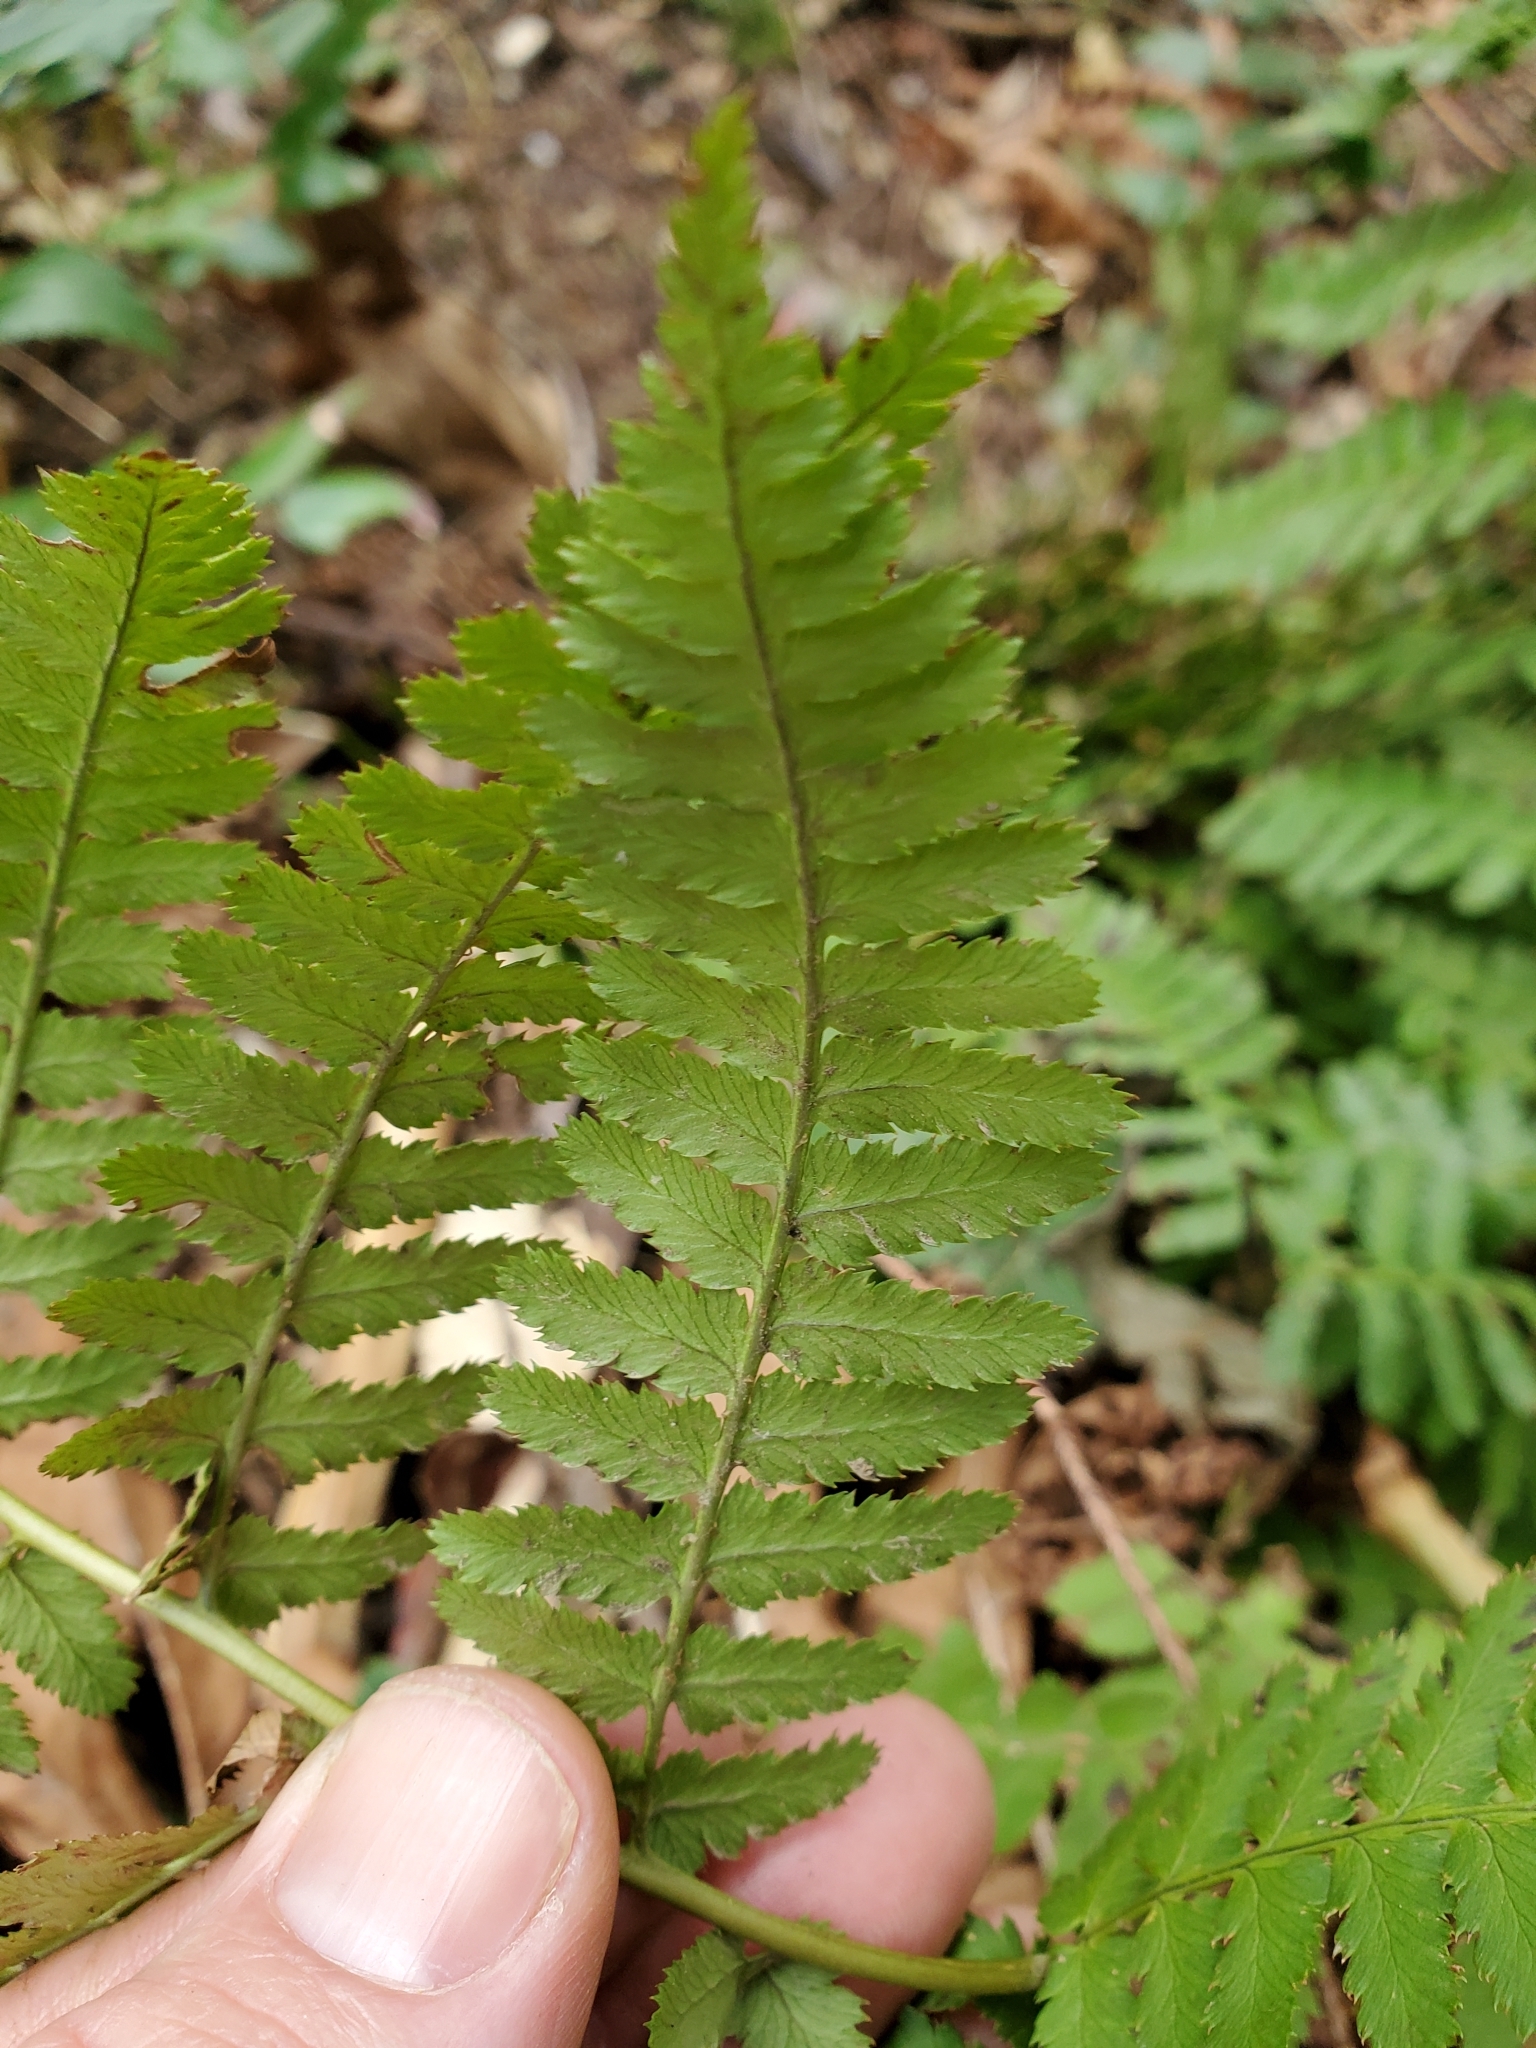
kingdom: Plantae
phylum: Tracheophyta
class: Polypodiopsida
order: Polypodiales
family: Dryopteridaceae
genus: Dryopteris
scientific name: Dryopteris arguta
